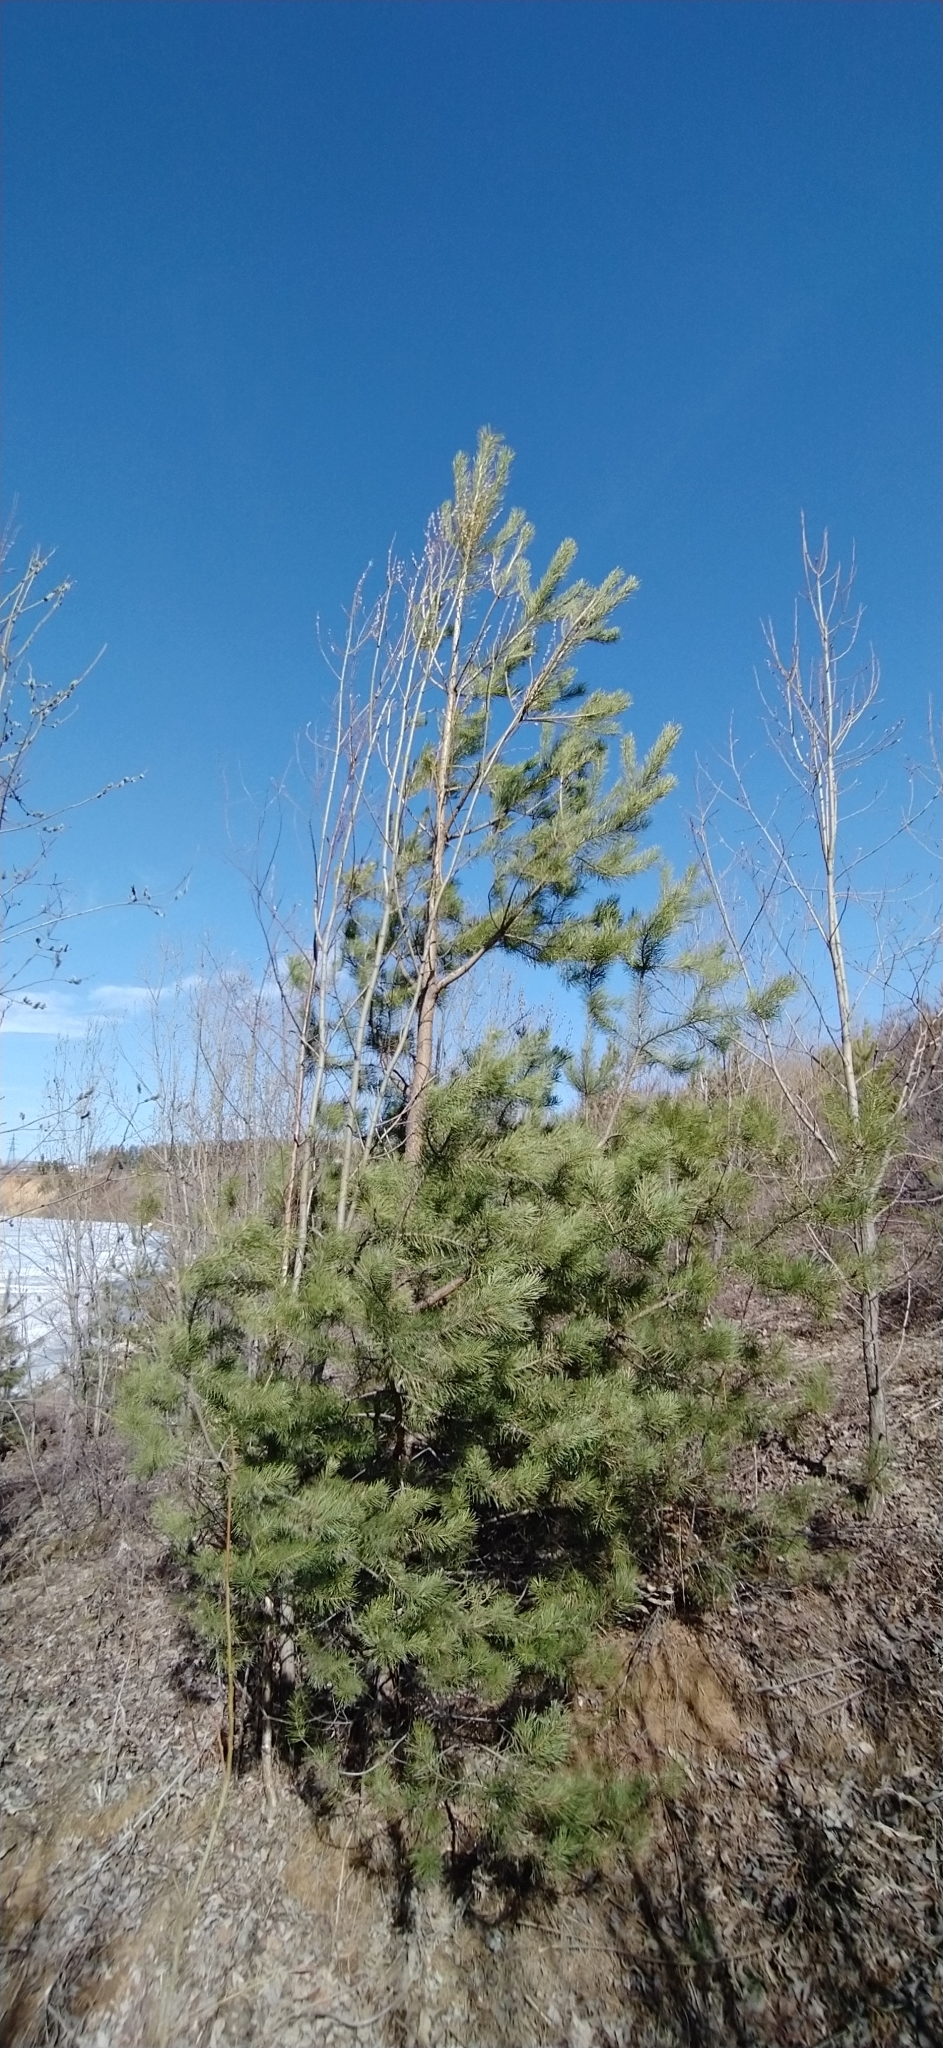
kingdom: Plantae
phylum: Tracheophyta
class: Pinopsida
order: Pinales
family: Pinaceae
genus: Pinus
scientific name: Pinus sylvestris
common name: Scots pine
